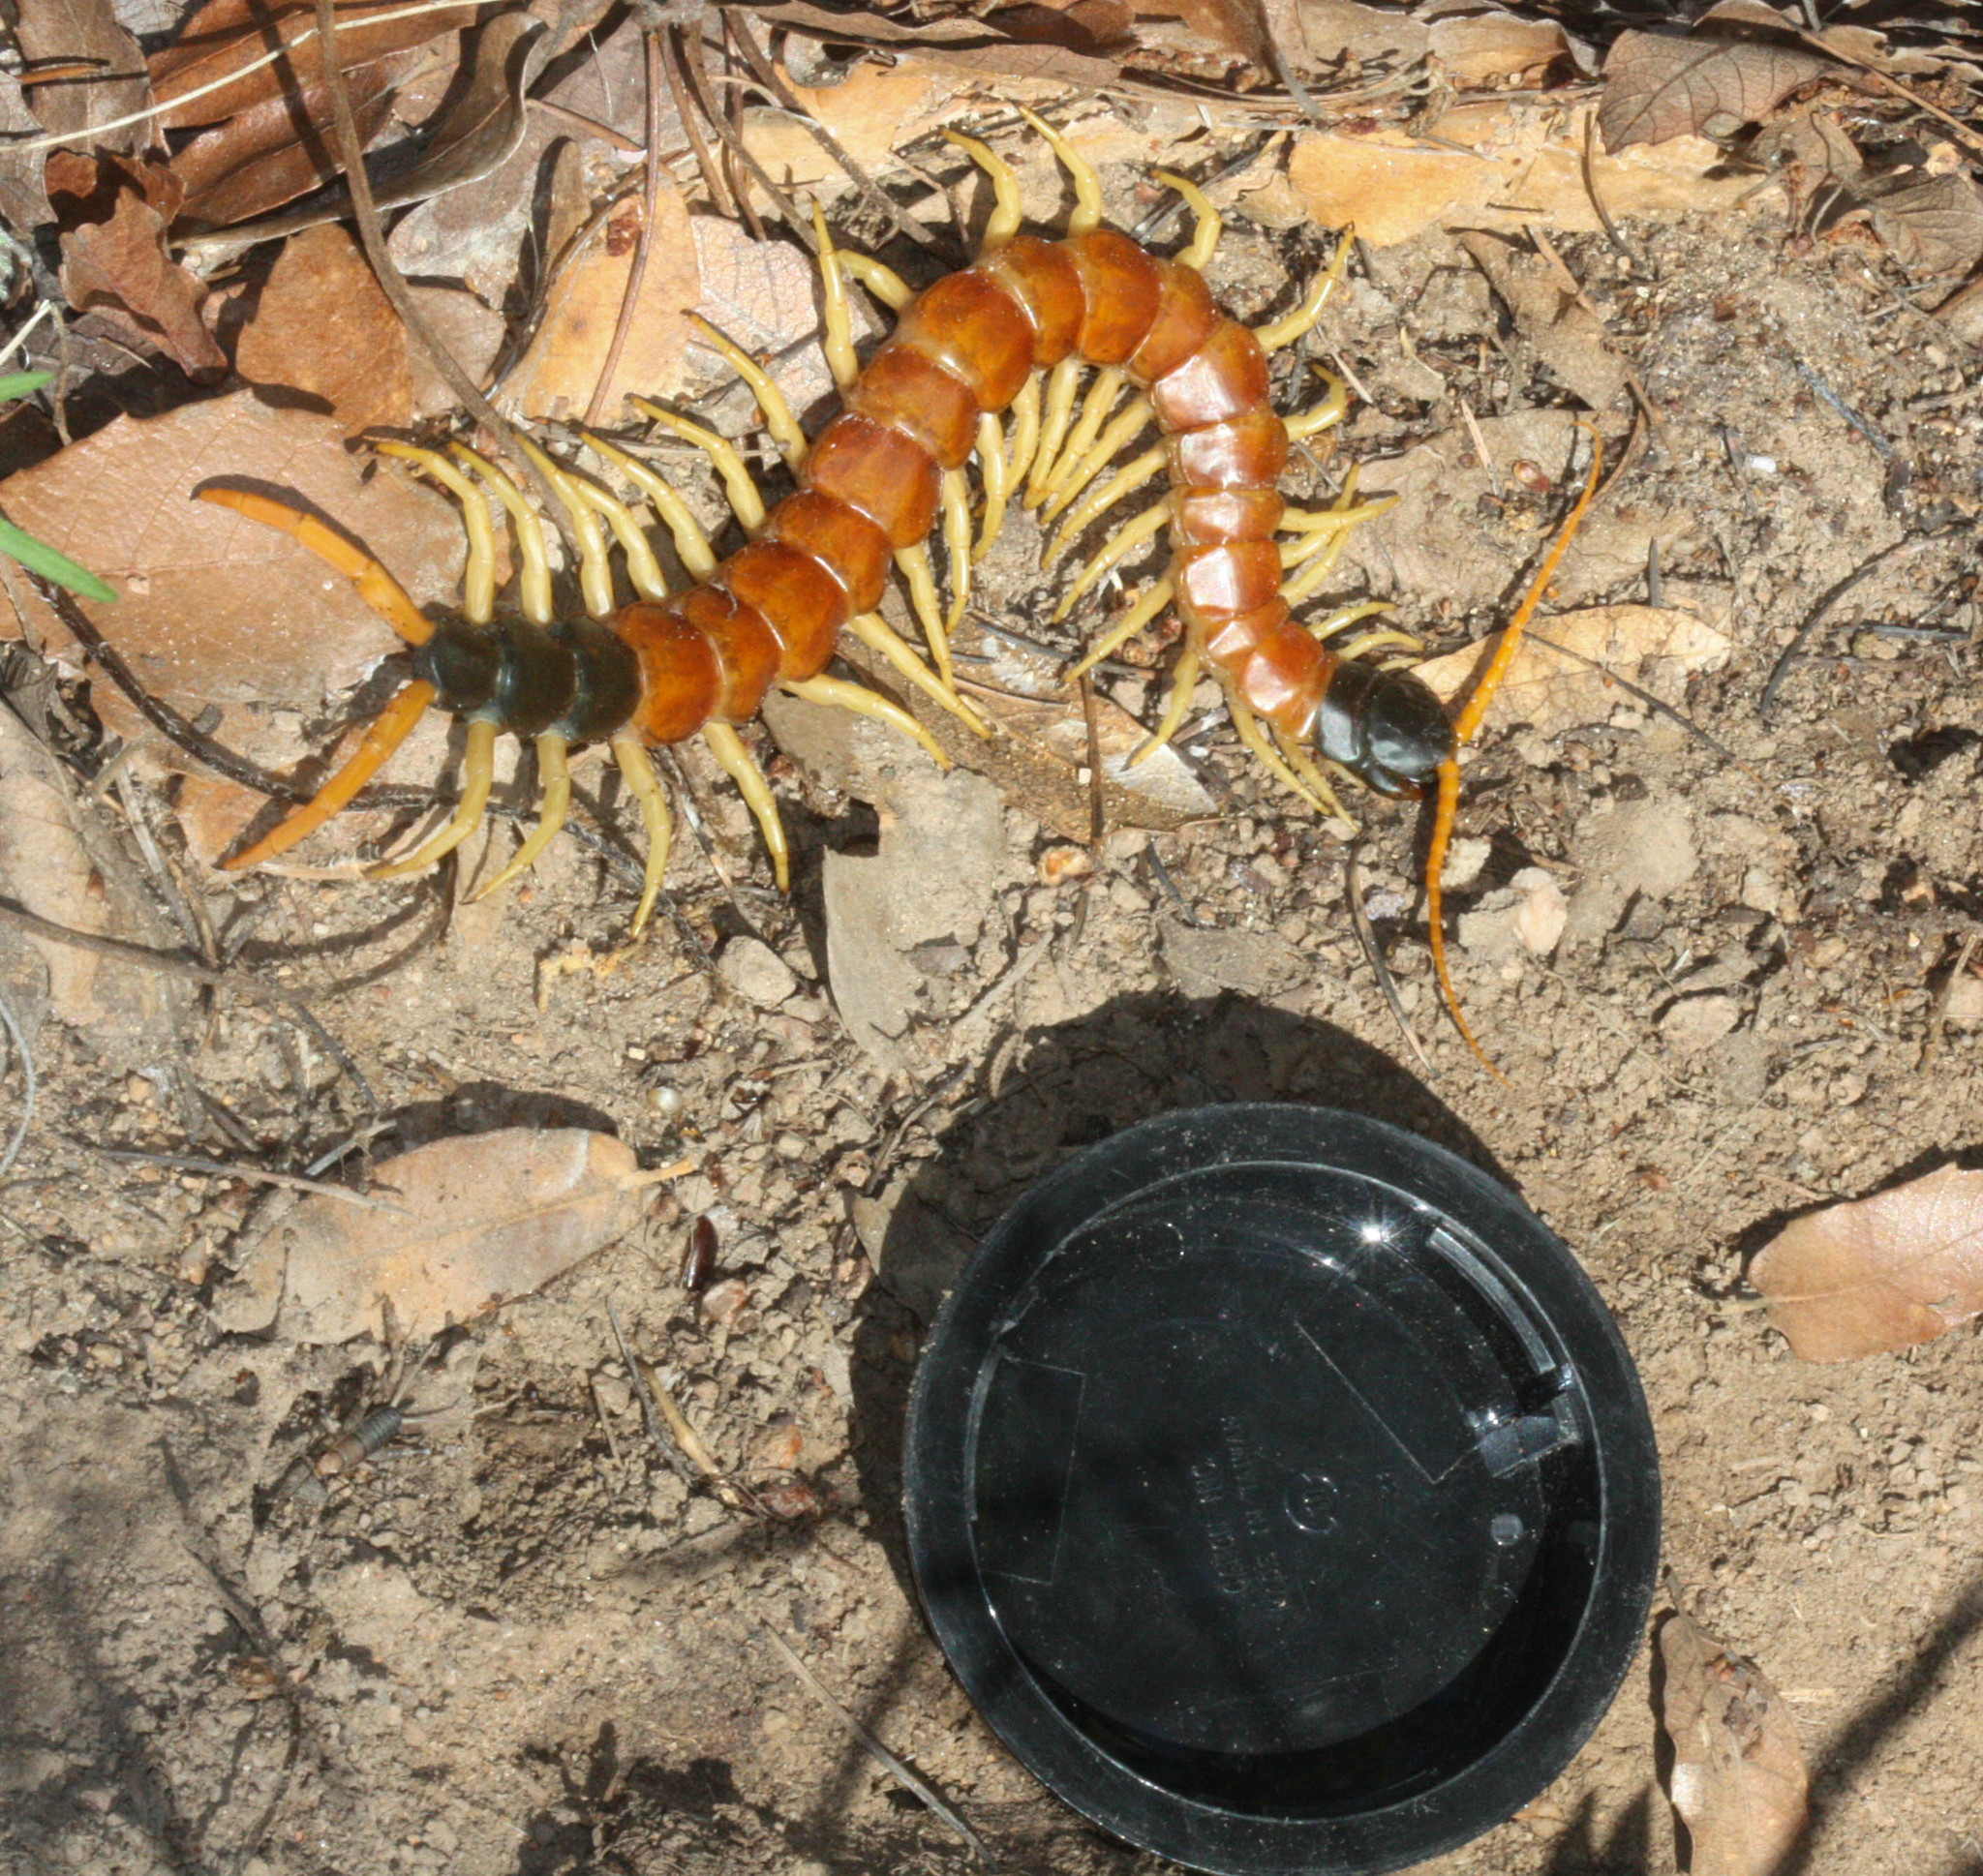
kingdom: Animalia
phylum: Arthropoda
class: Chilopoda
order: Scolopendromorpha
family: Scolopendridae
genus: Scolopendra
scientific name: Scolopendra heros
